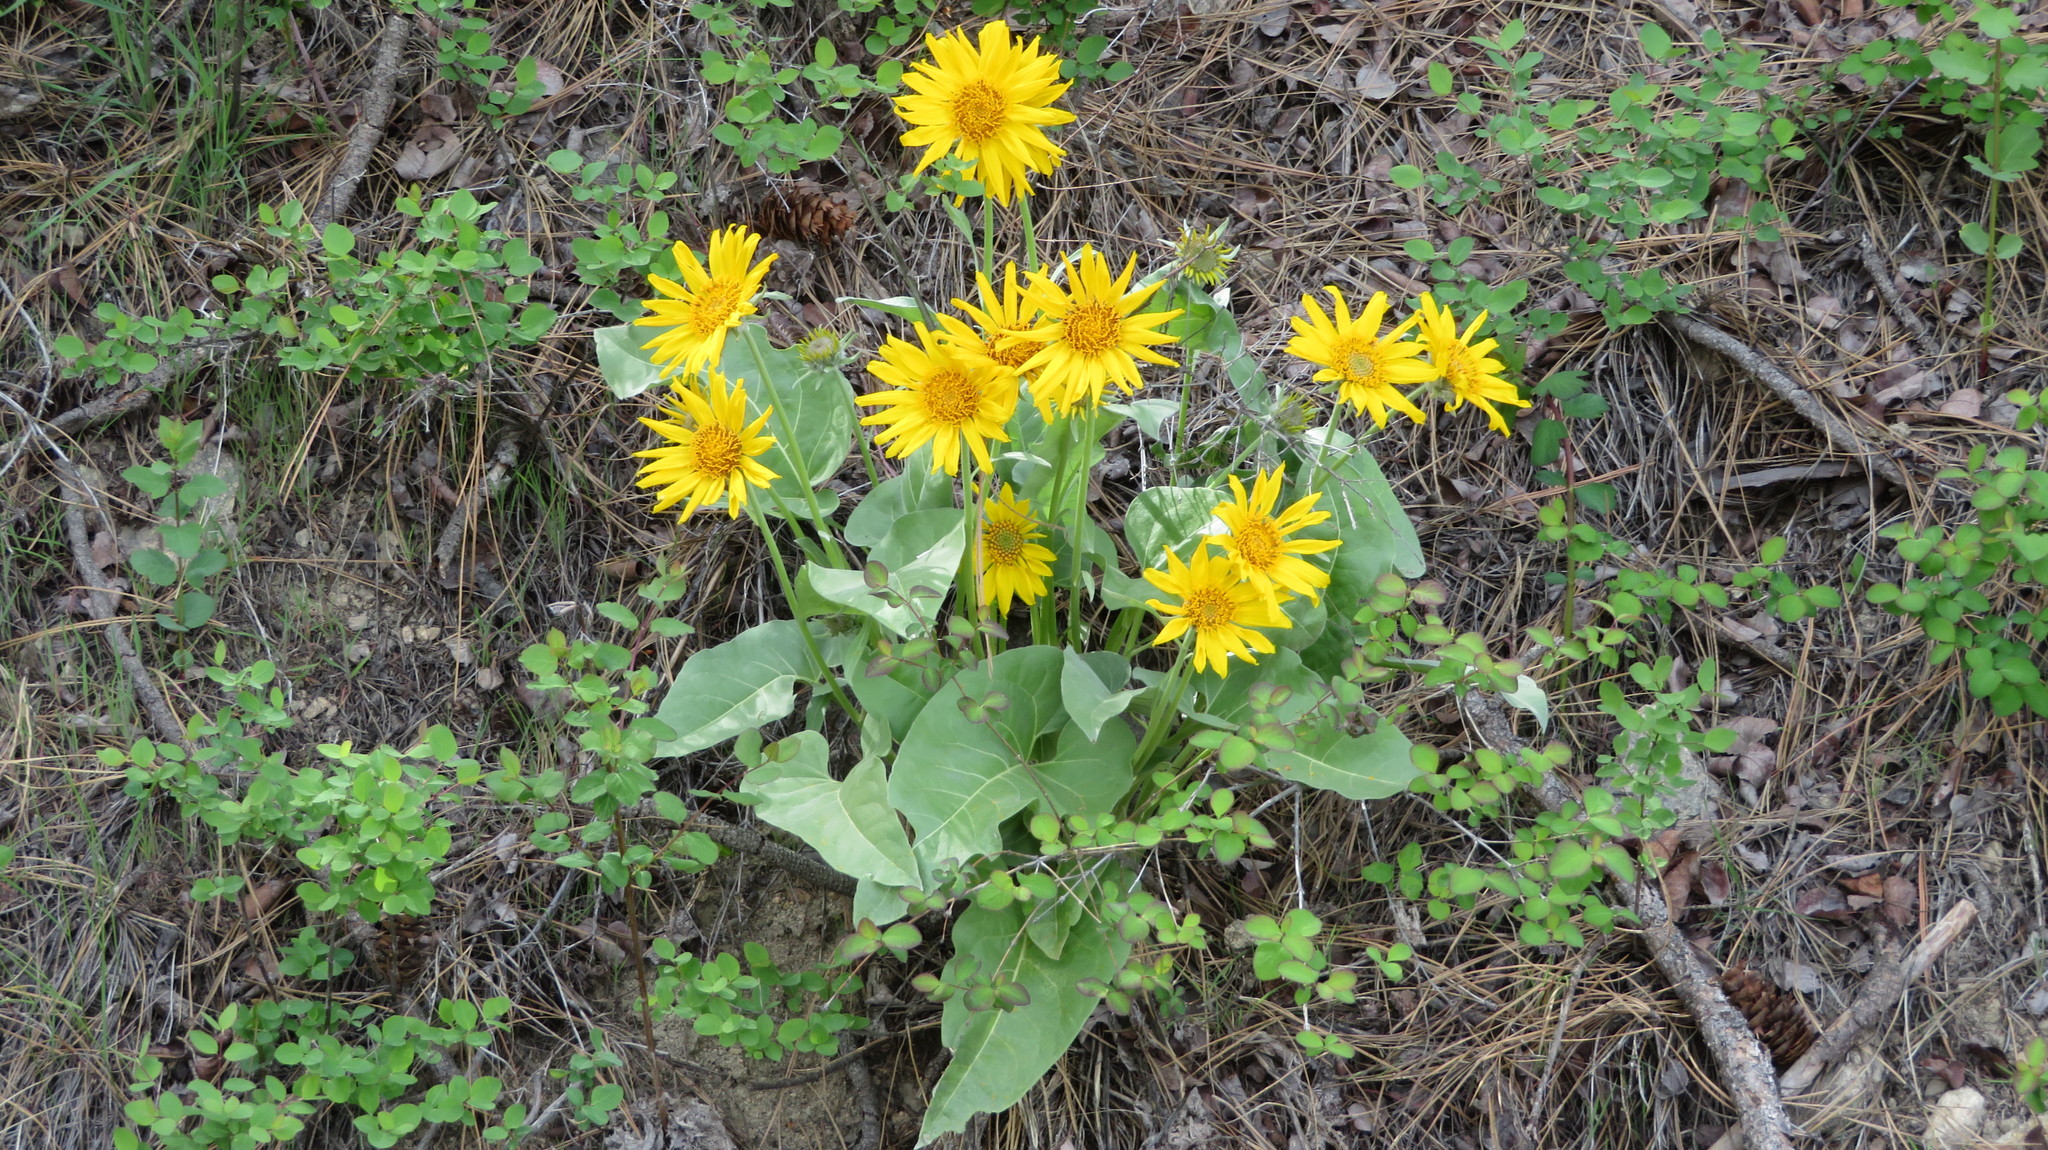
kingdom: Plantae
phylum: Tracheophyta
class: Magnoliopsida
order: Asterales
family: Asteraceae
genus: Wyethia
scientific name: Wyethia sagittata
